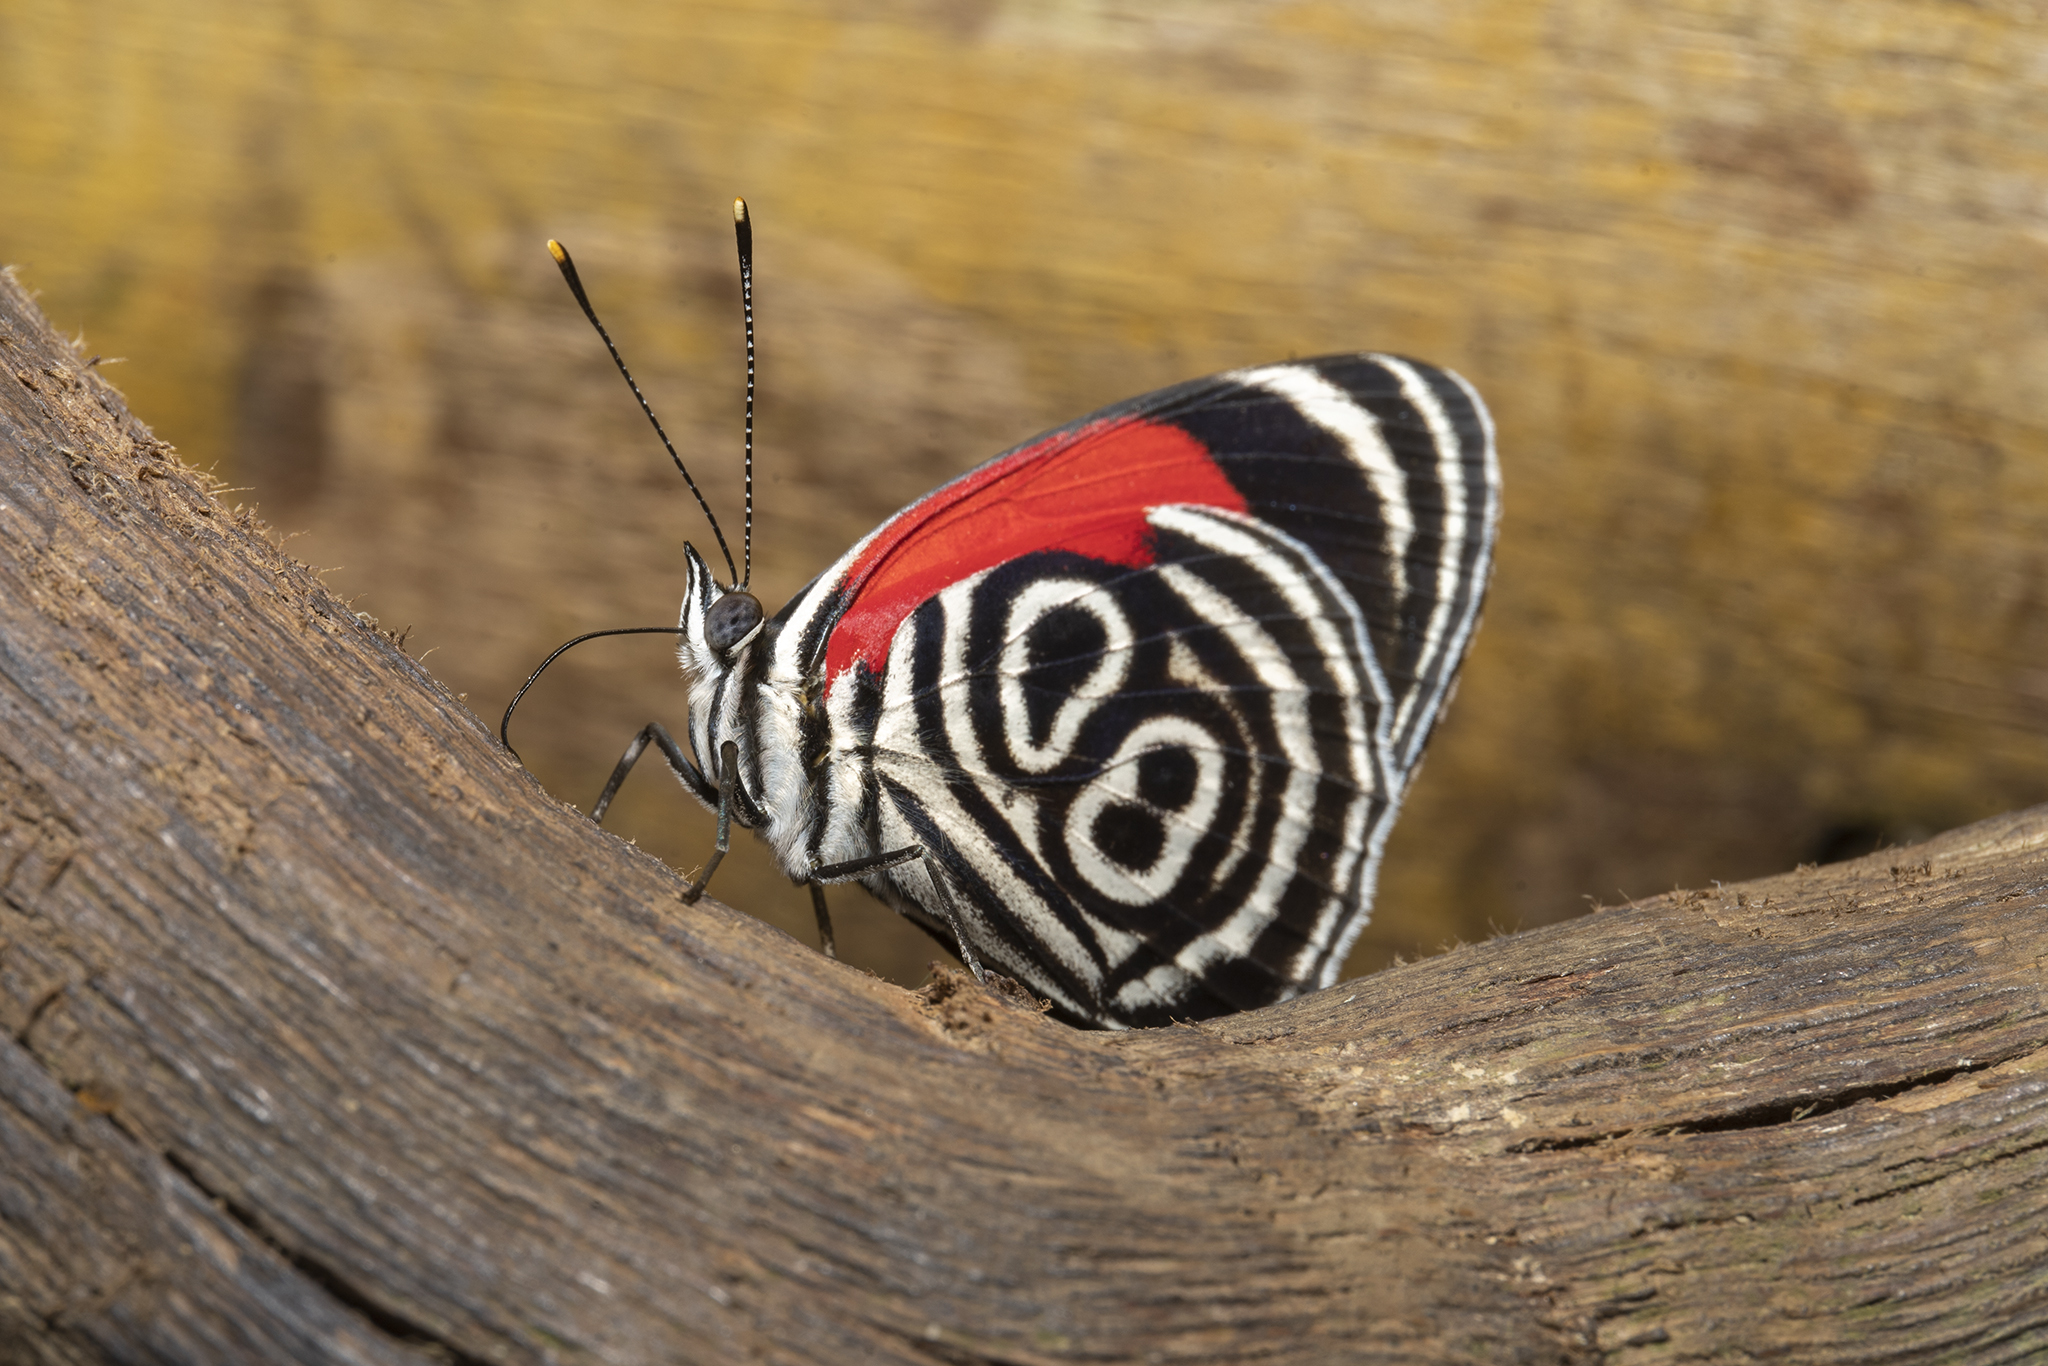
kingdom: Animalia
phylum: Arthropoda
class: Insecta
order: Lepidoptera
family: Nymphalidae
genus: Diaethria
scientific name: Diaethria clymena
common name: Widespread eighty-eight
